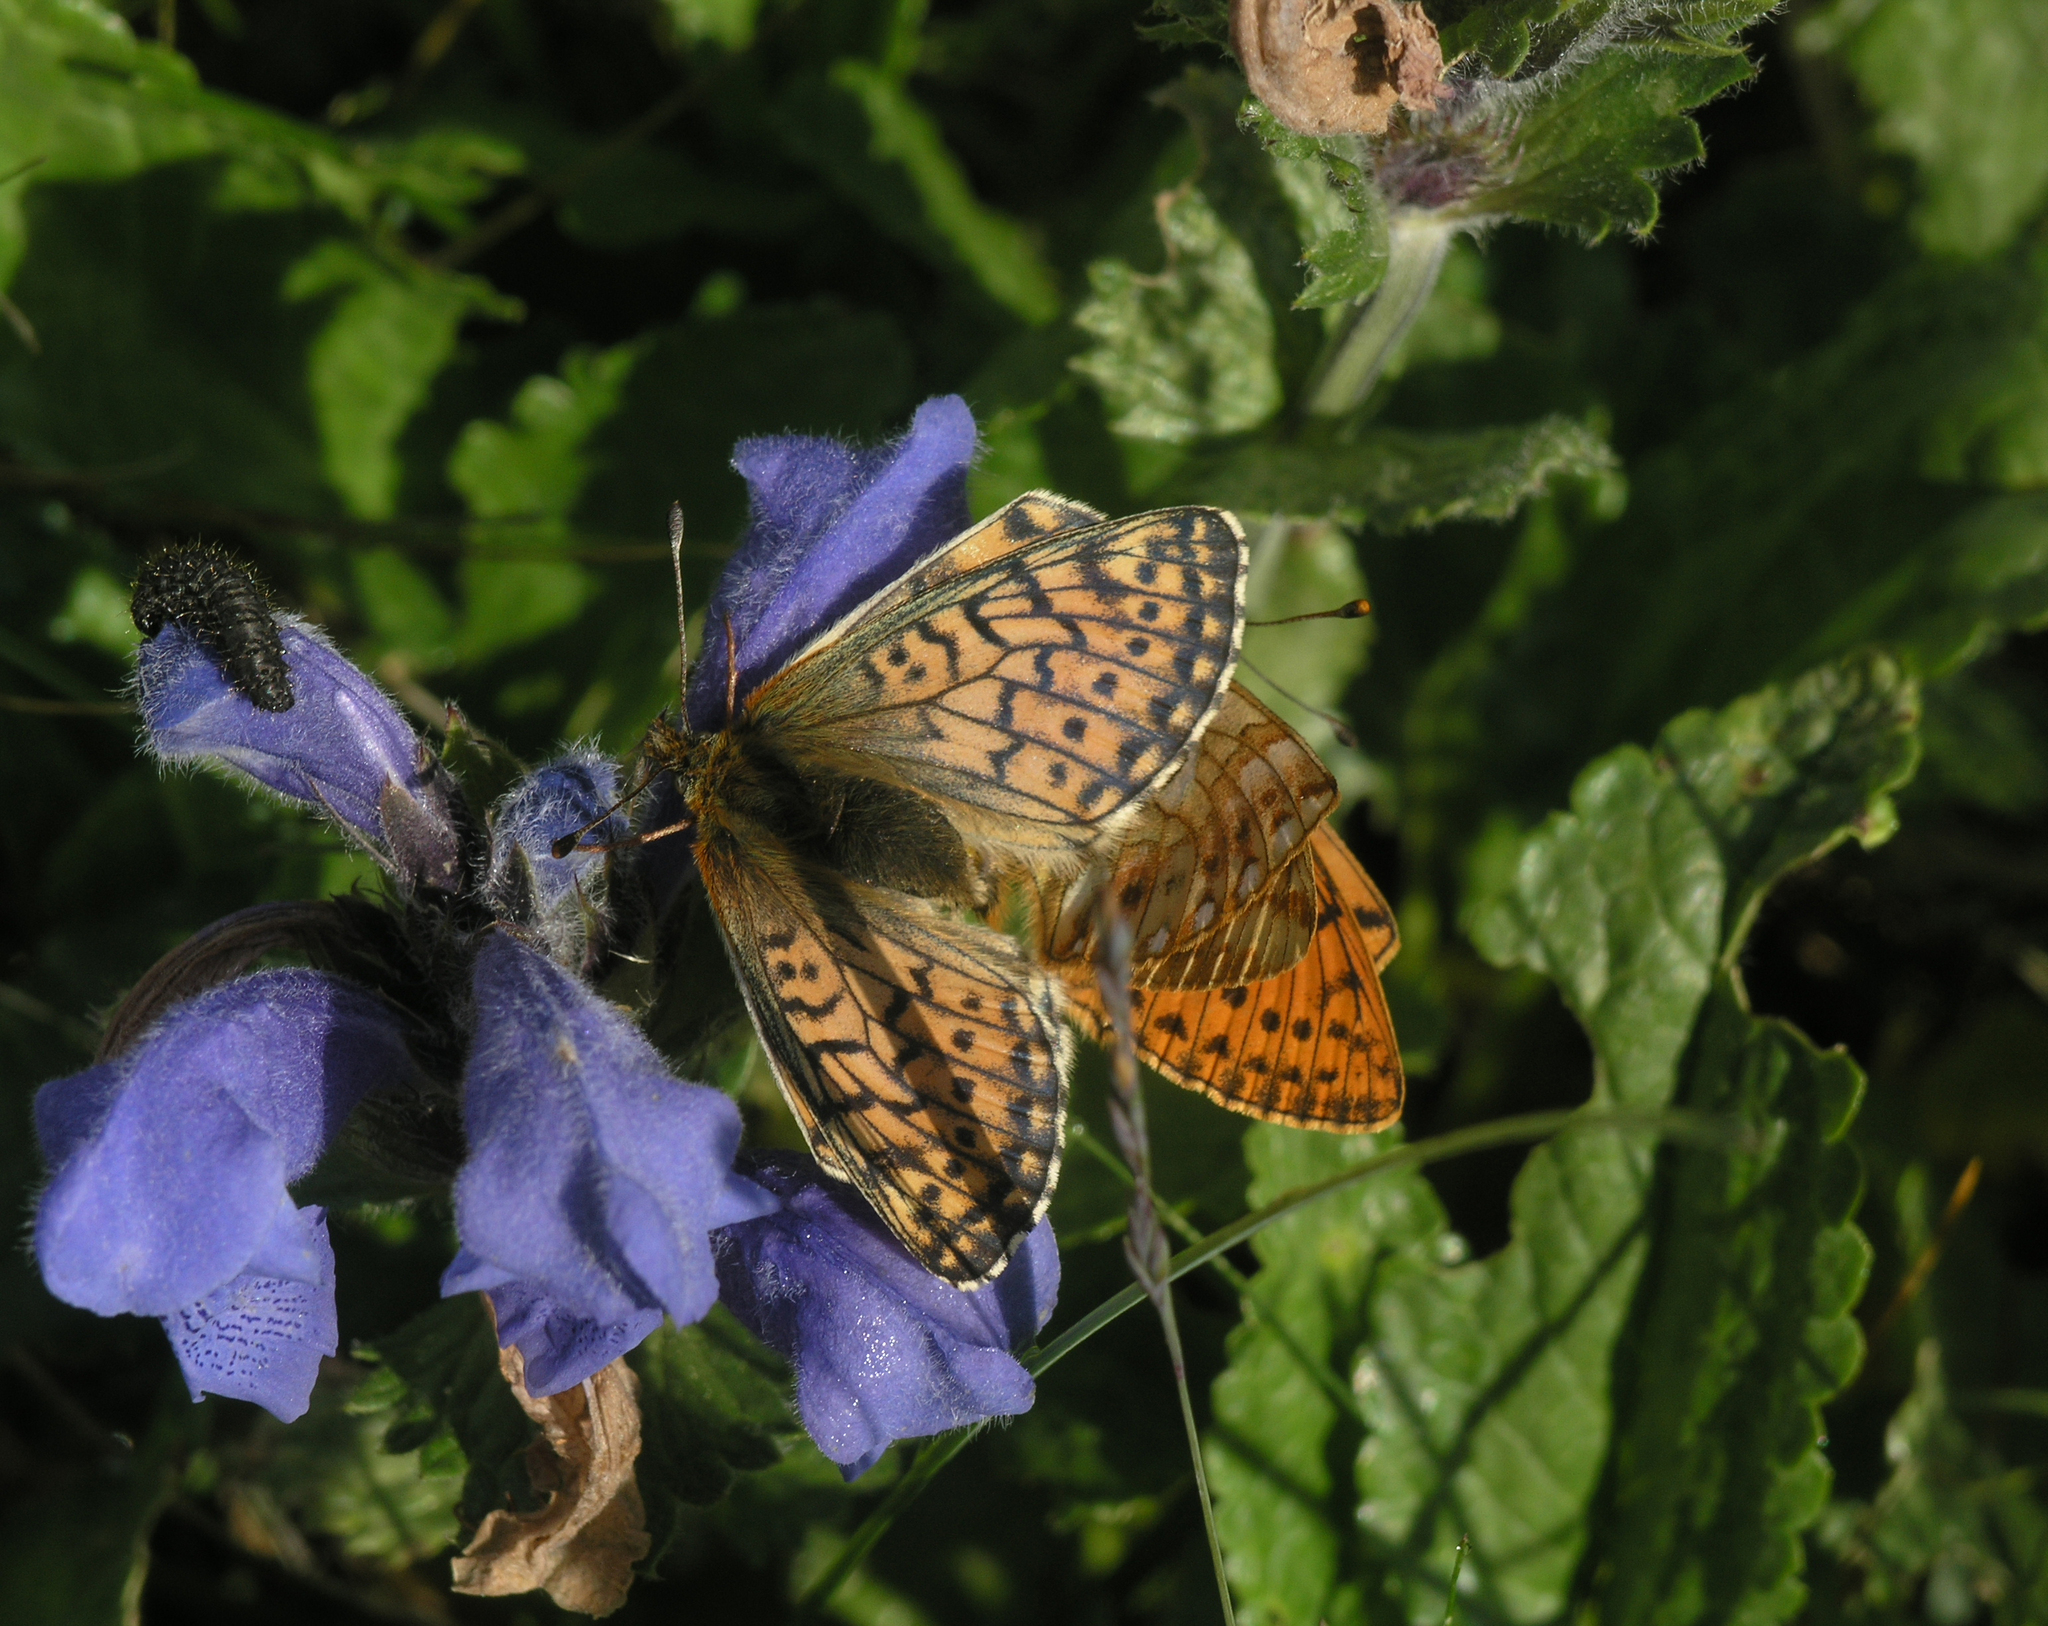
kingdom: Animalia
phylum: Arthropoda
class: Insecta
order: Lepidoptera
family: Nymphalidae
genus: Boloria
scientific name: Boloria
